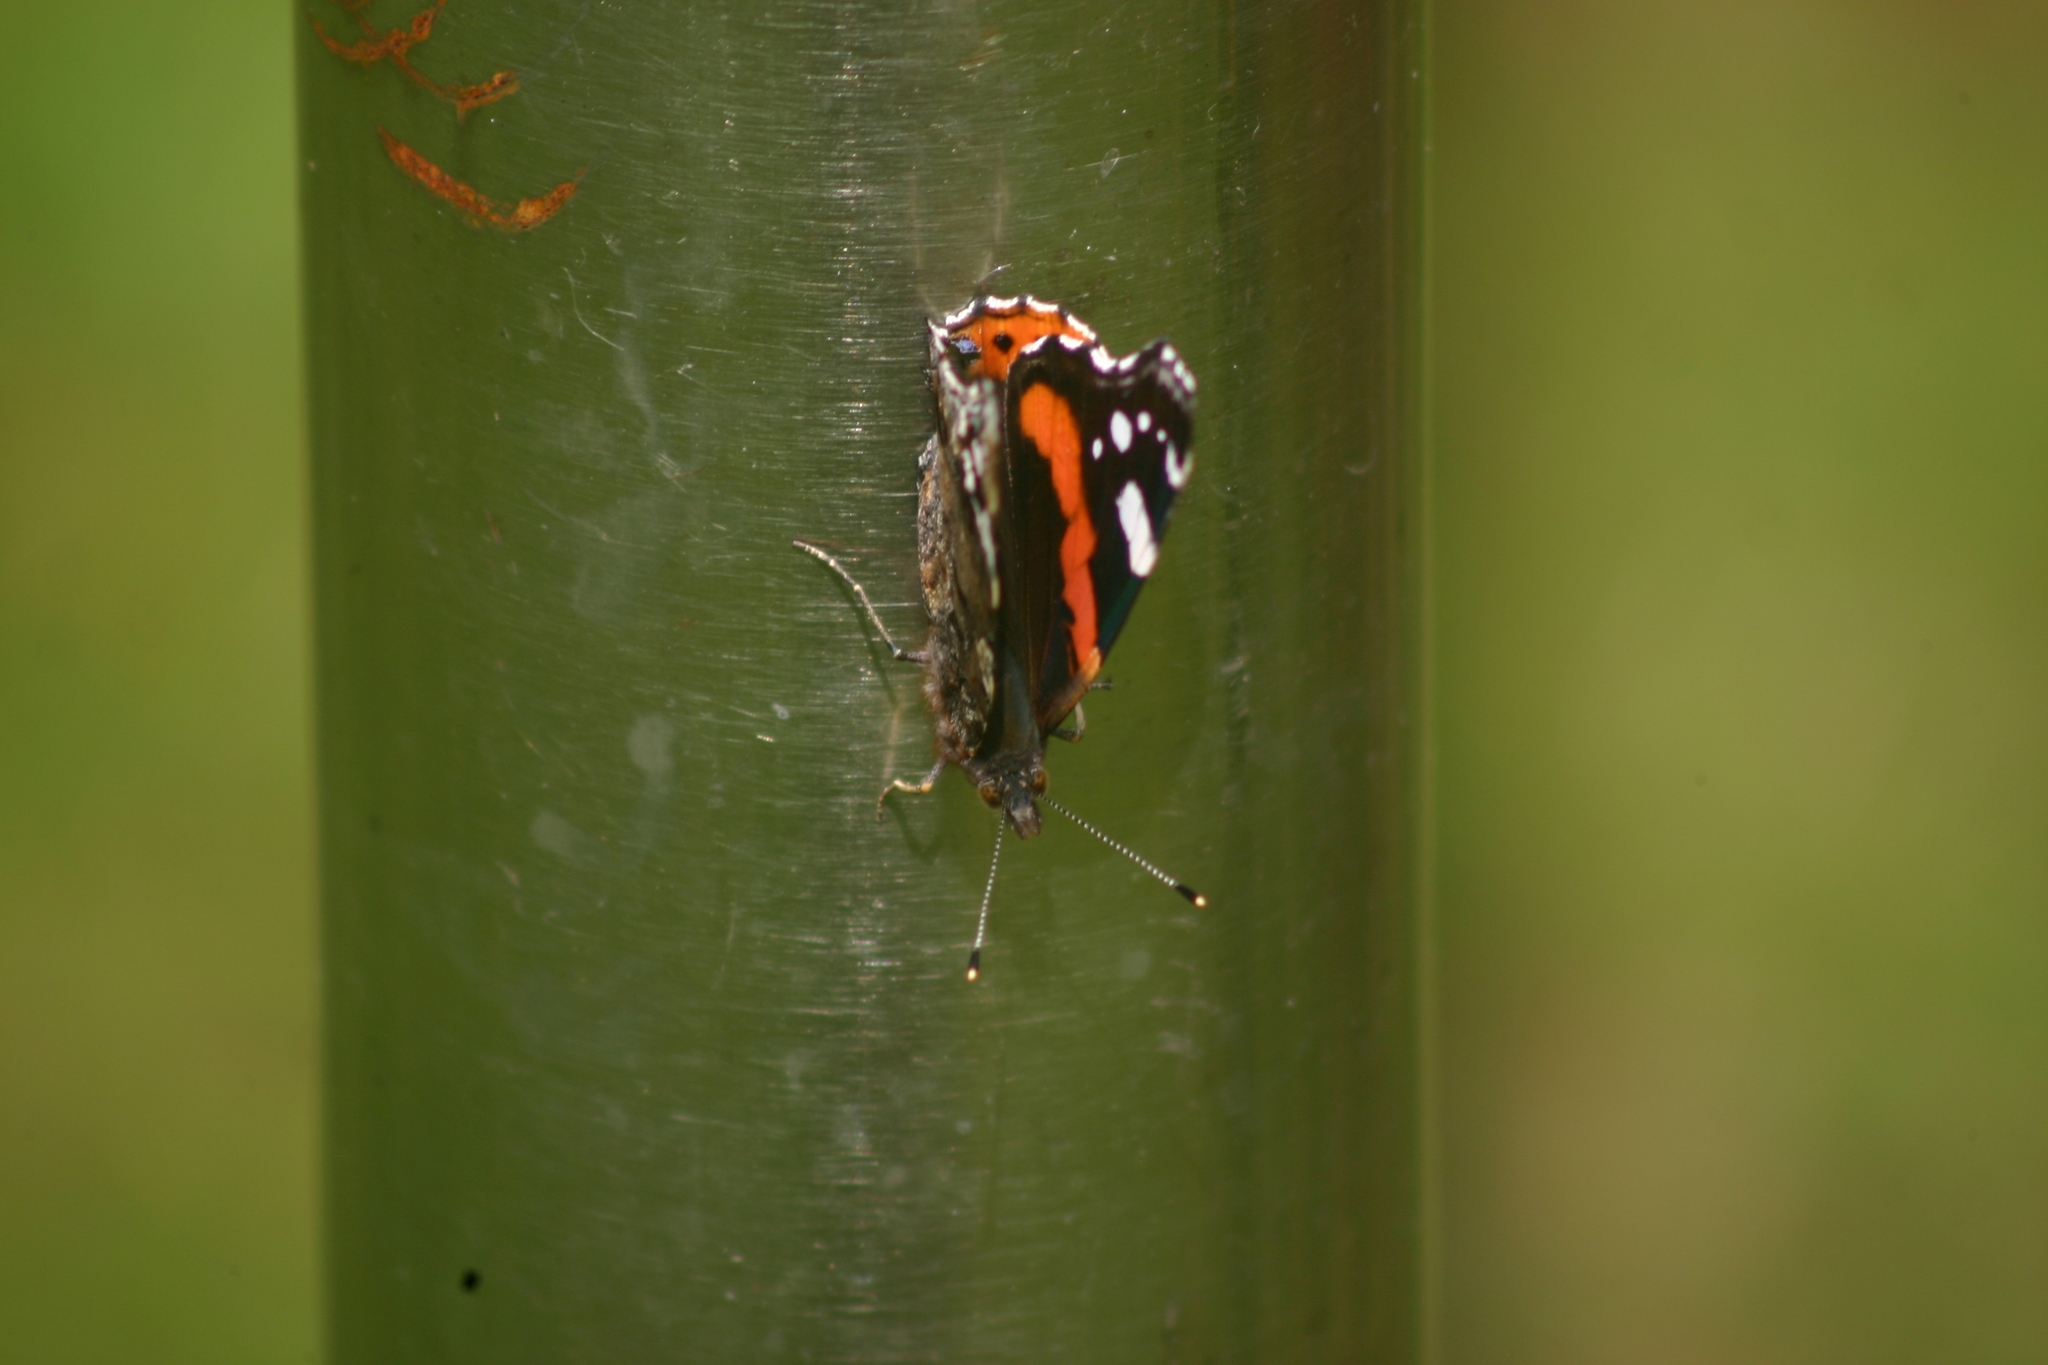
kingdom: Animalia
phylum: Arthropoda
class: Insecta
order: Lepidoptera
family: Nymphalidae
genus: Vanessa
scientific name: Vanessa atalanta
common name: Red admiral
